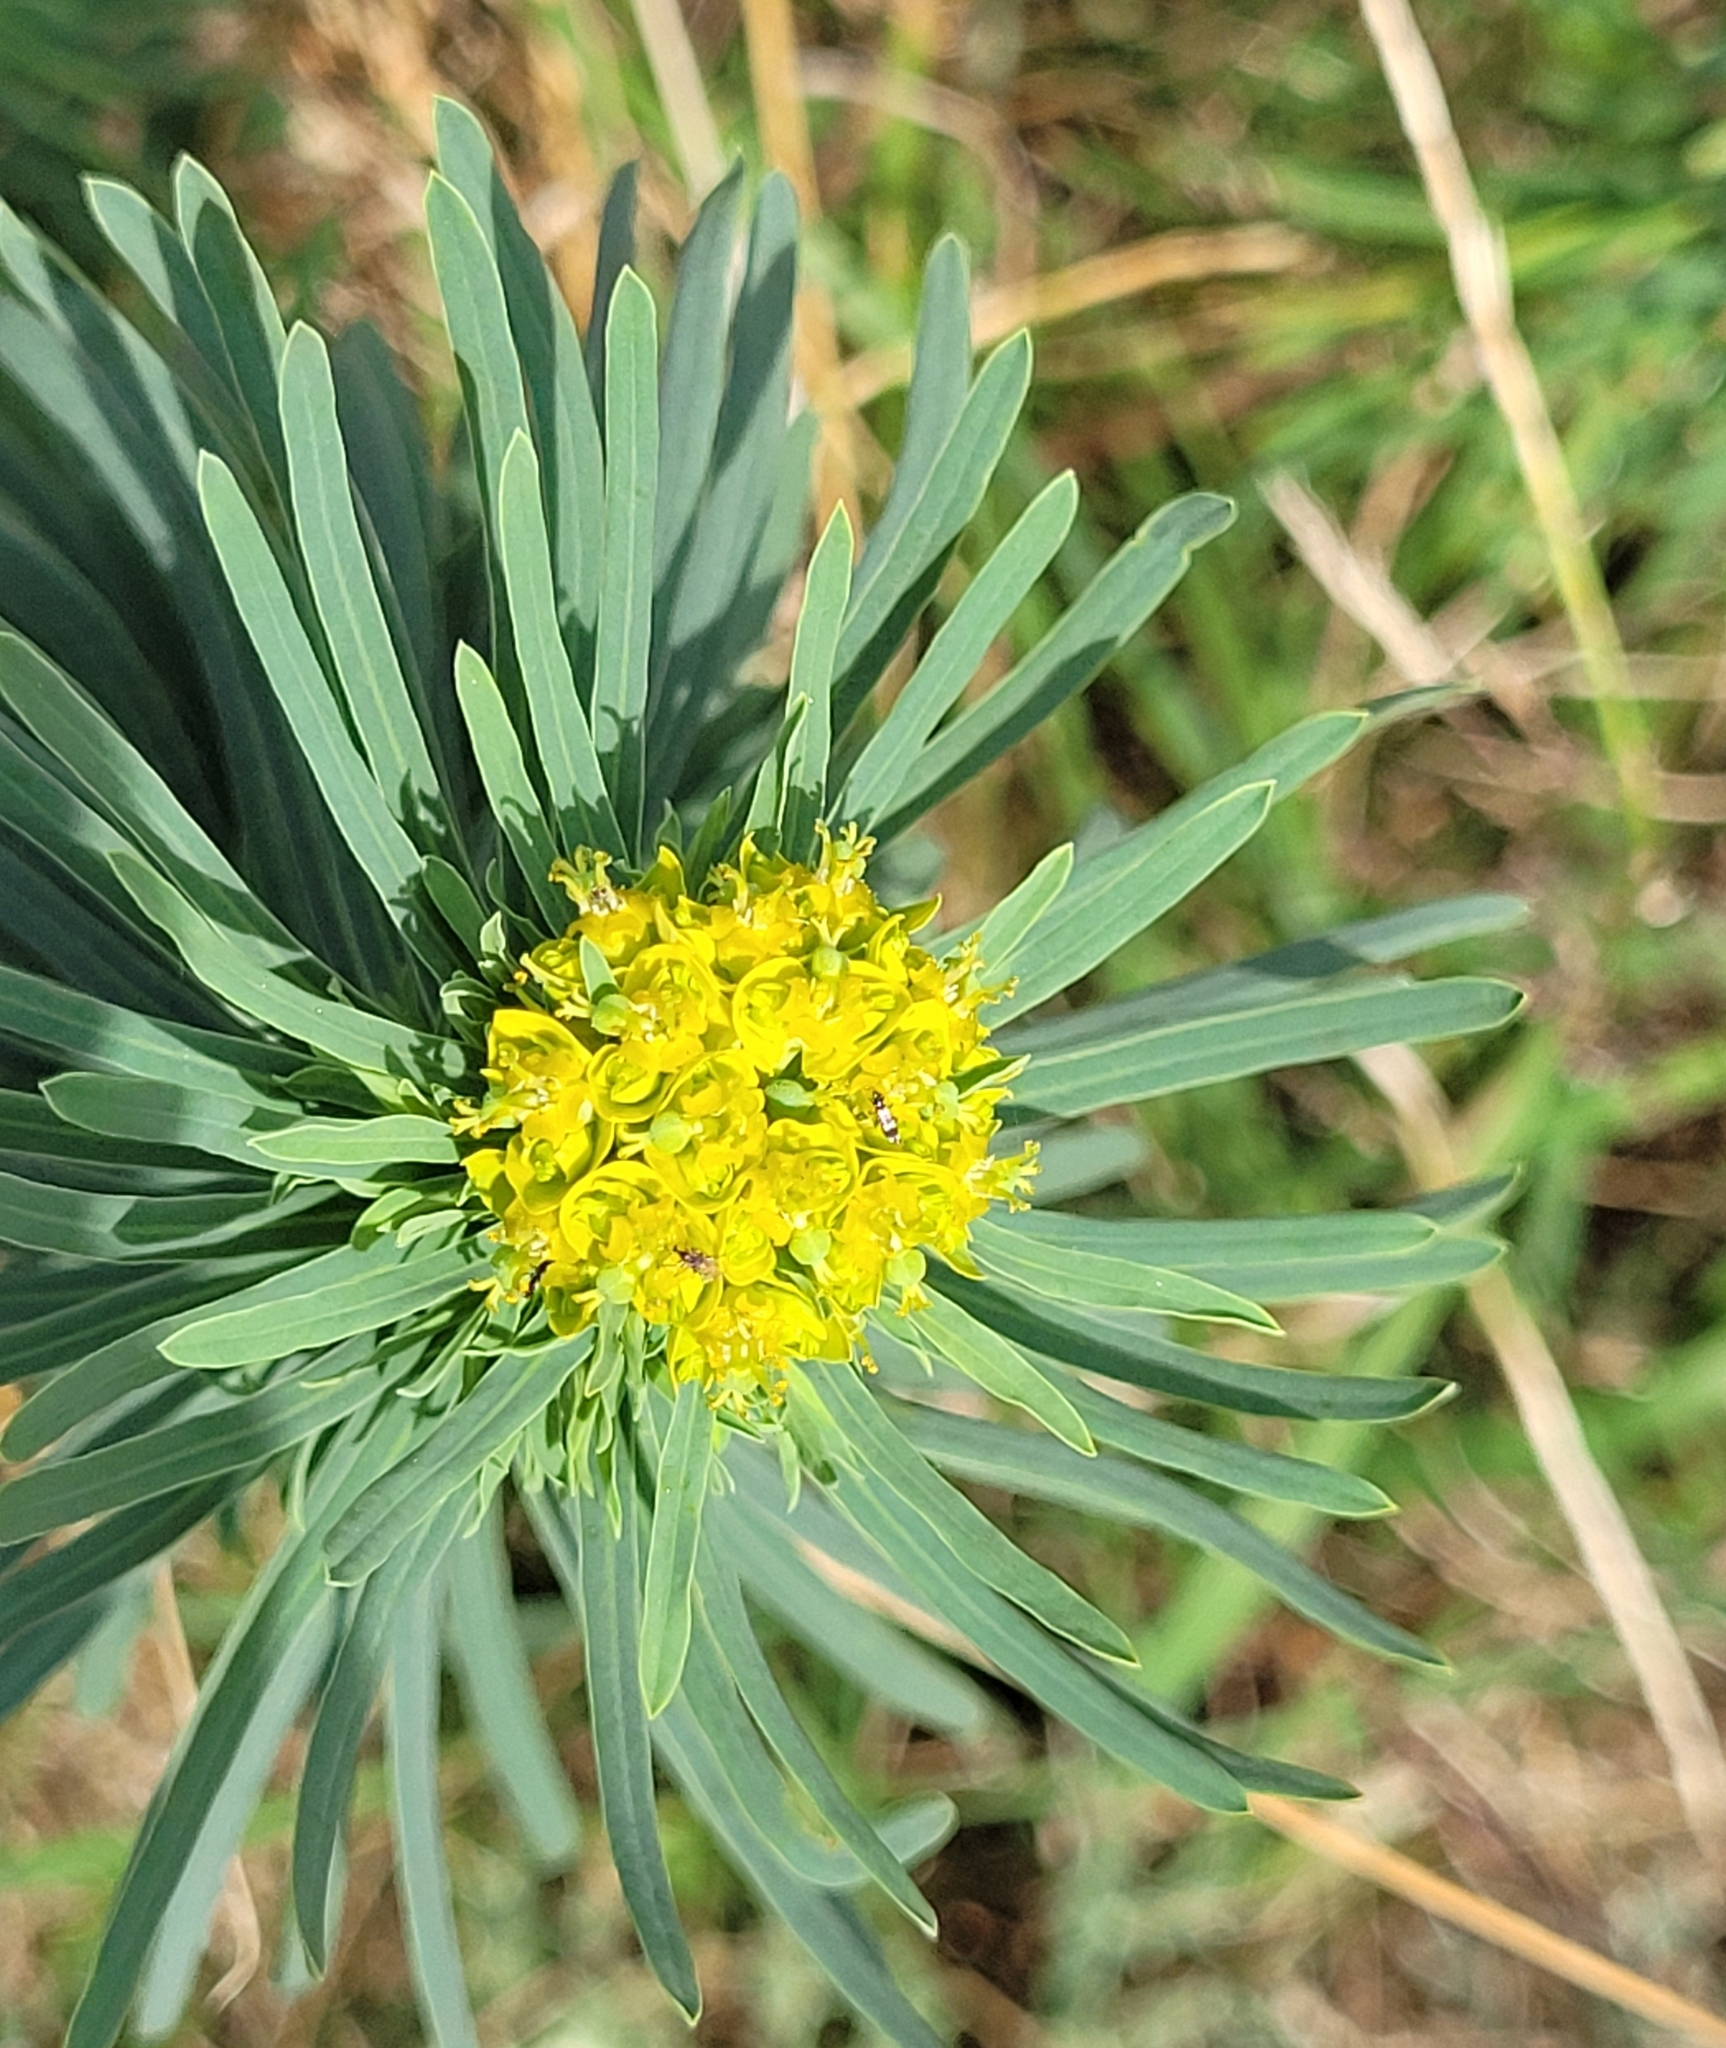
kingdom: Plantae
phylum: Tracheophyta
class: Magnoliopsida
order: Malpighiales
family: Euphorbiaceae
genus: Euphorbia
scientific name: Euphorbia cyparissias
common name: Cypress spurge
